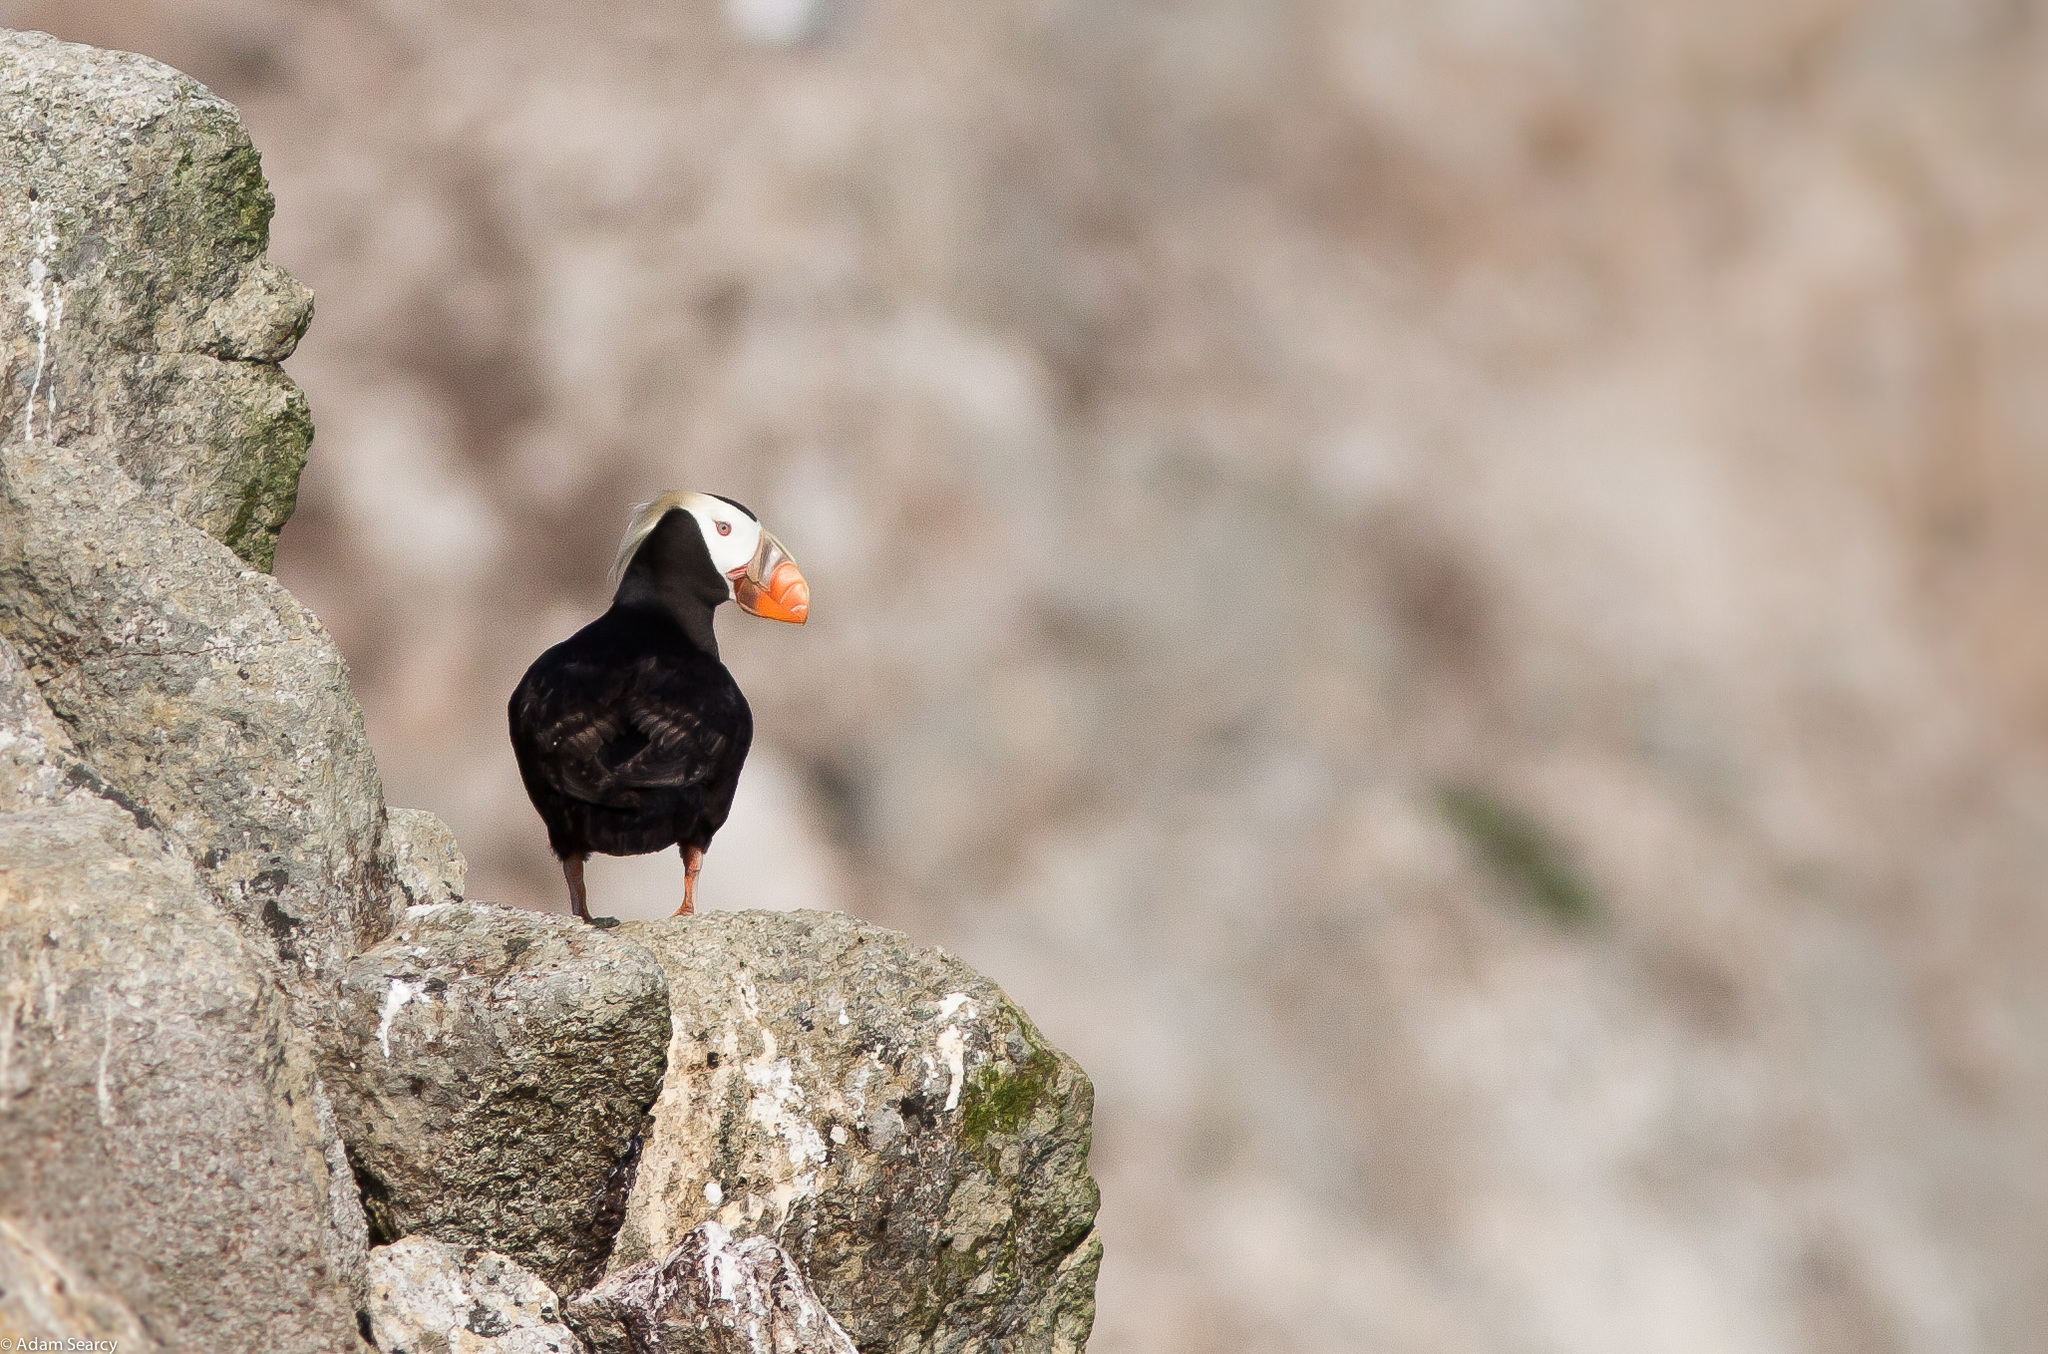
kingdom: Animalia
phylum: Chordata
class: Aves
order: Charadriiformes
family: Alcidae
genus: Fratercula
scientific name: Fratercula cirrhata
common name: Tufted puffin
